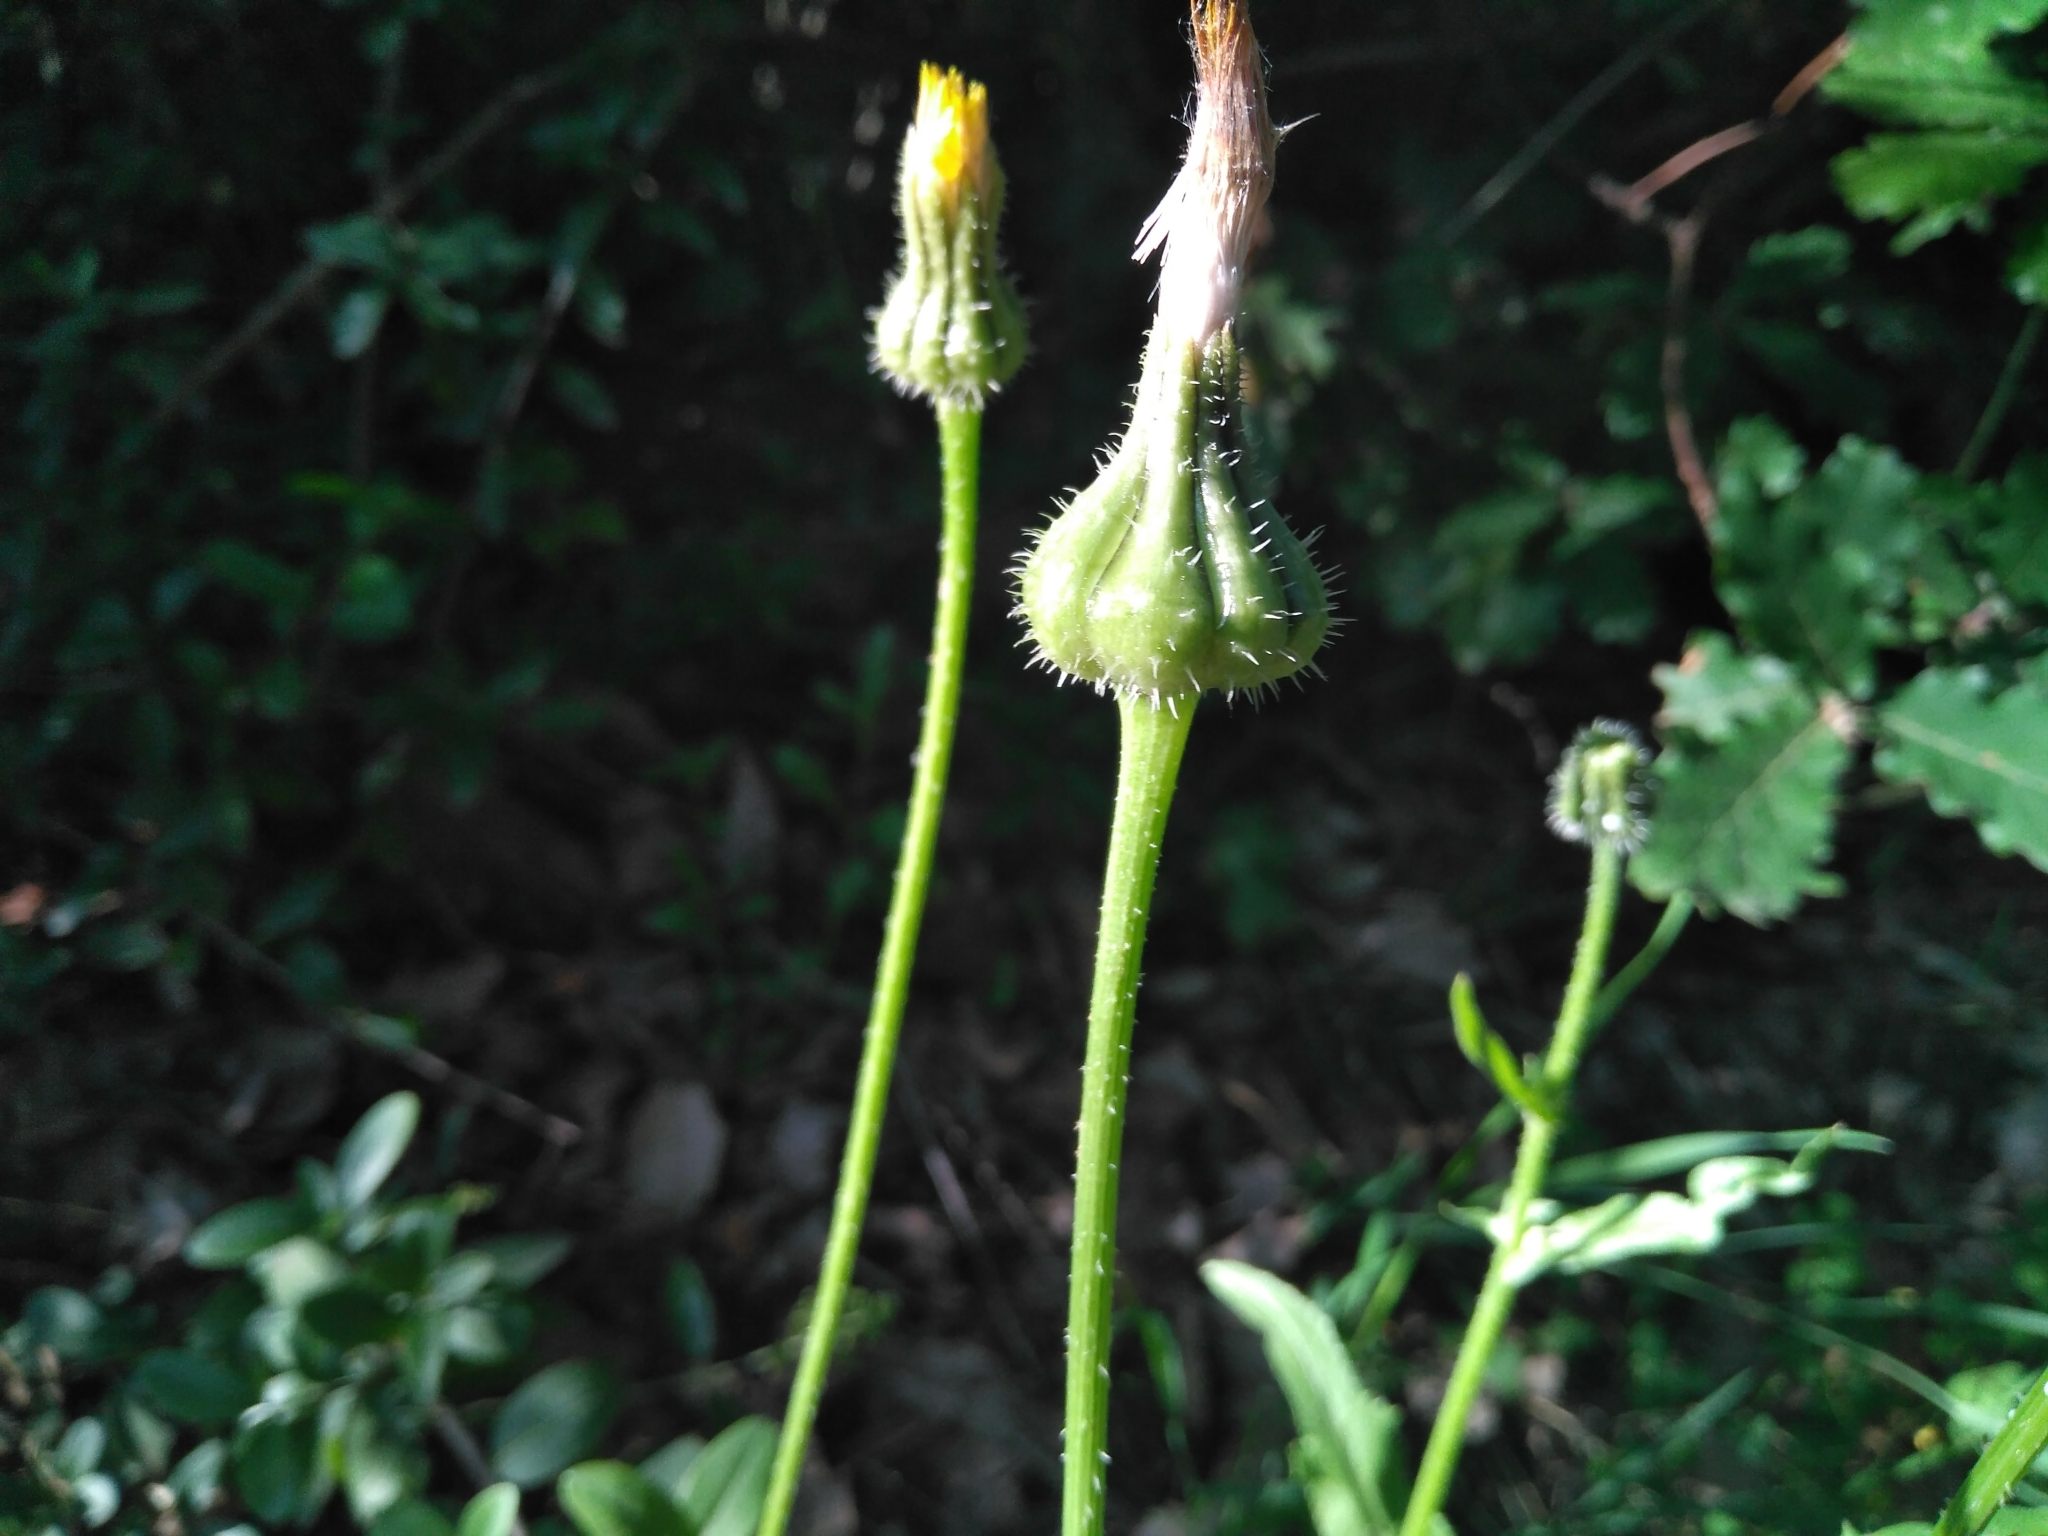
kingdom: Plantae
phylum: Tracheophyta
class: Magnoliopsida
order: Asterales
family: Asteraceae
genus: Urospermum
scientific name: Urospermum picroides
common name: False hawkbit
